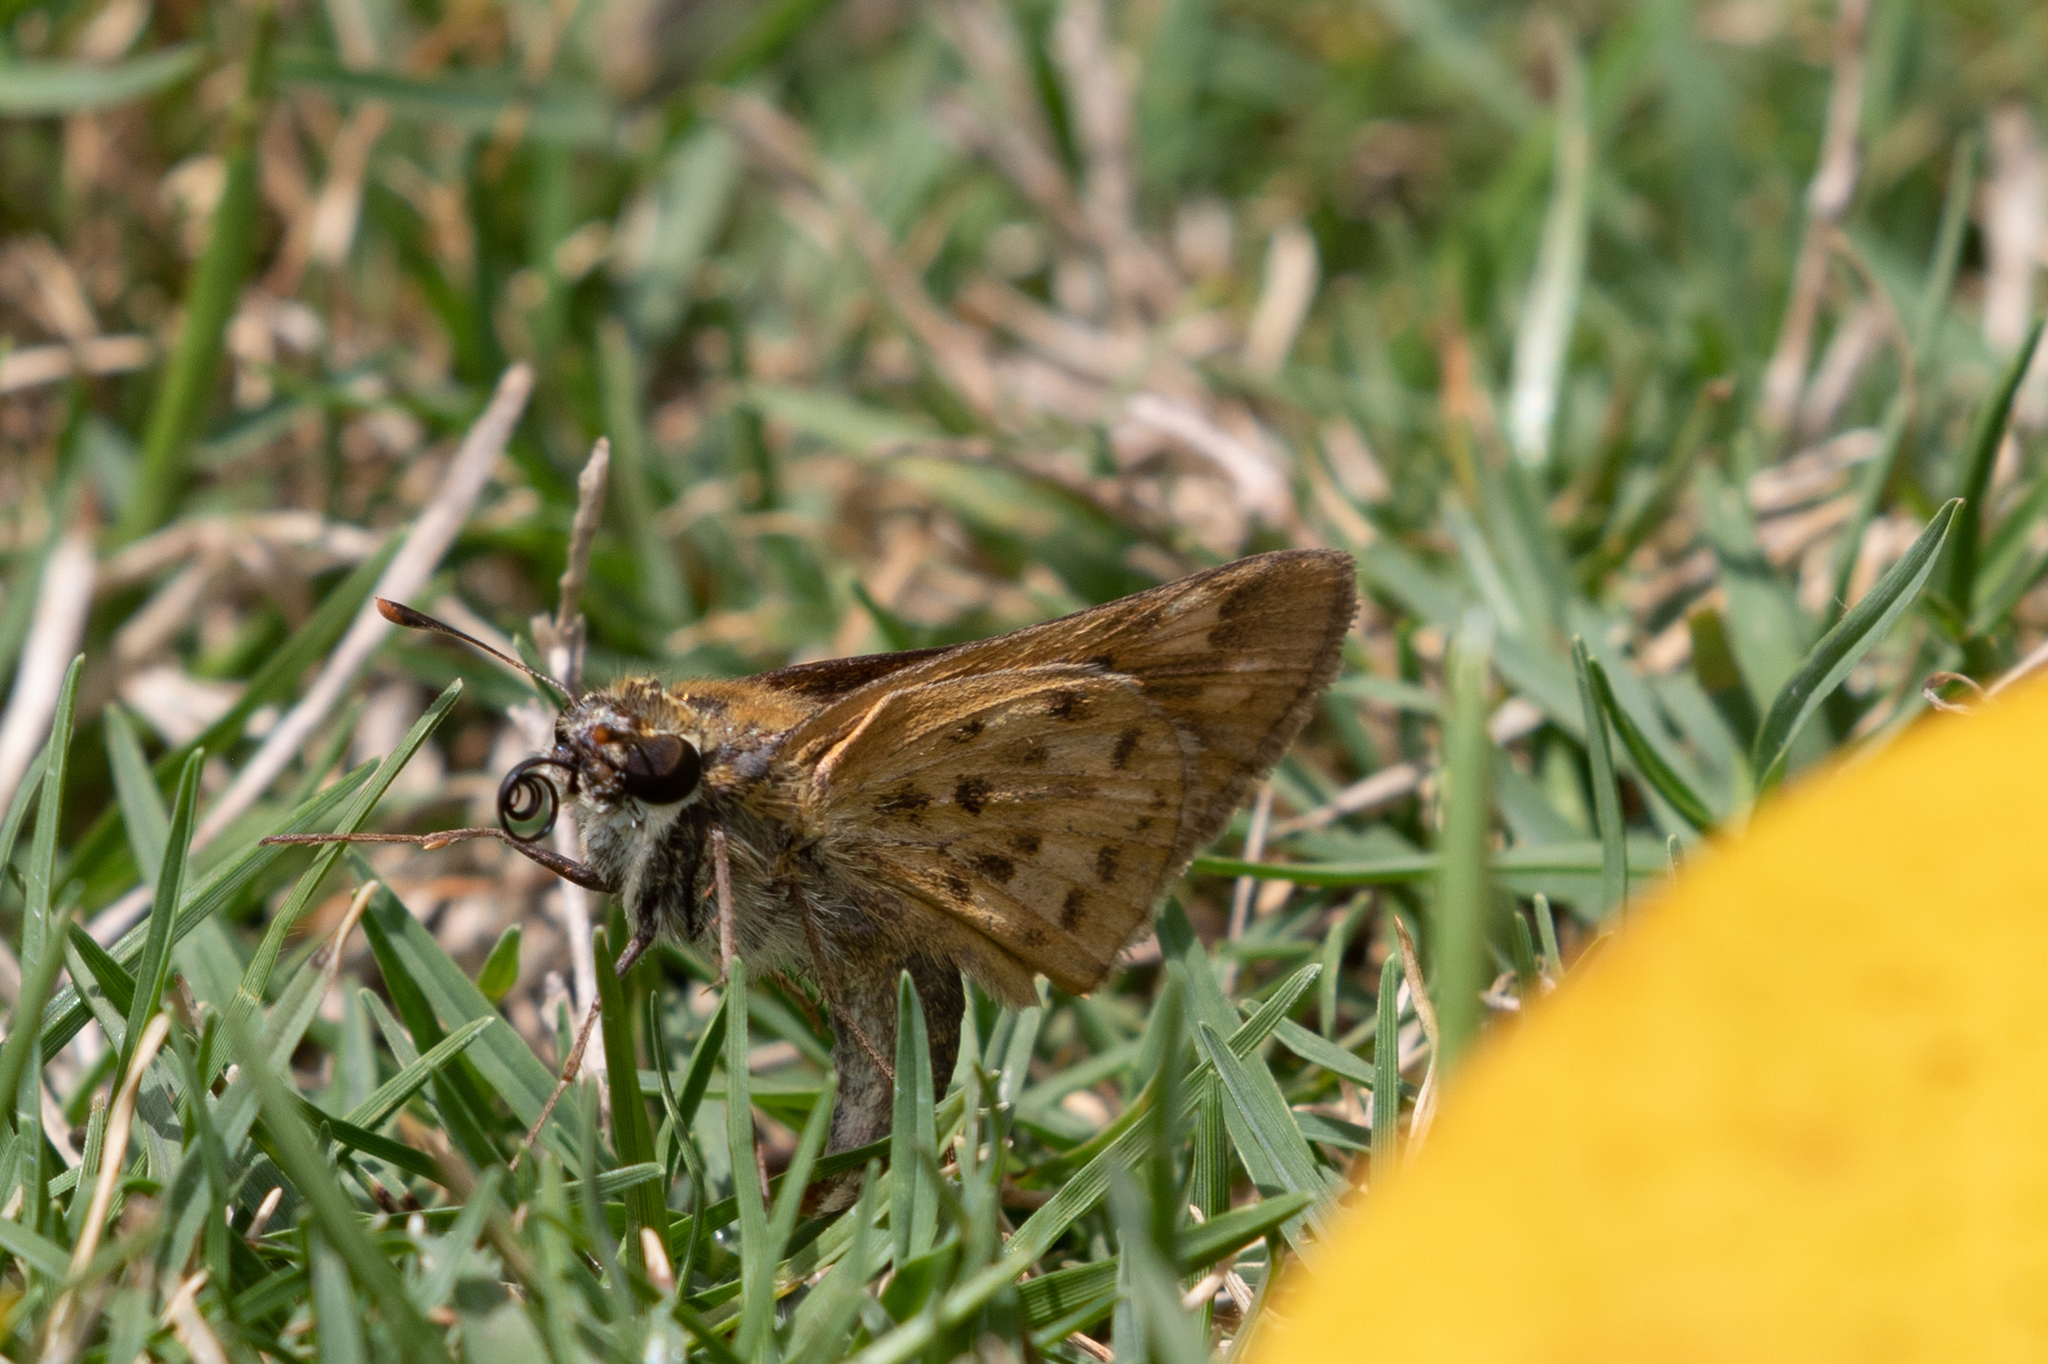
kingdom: Animalia
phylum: Arthropoda
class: Insecta
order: Lepidoptera
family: Hesperiidae
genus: Hylephila
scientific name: Hylephila phyleus
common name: Fiery skipper
